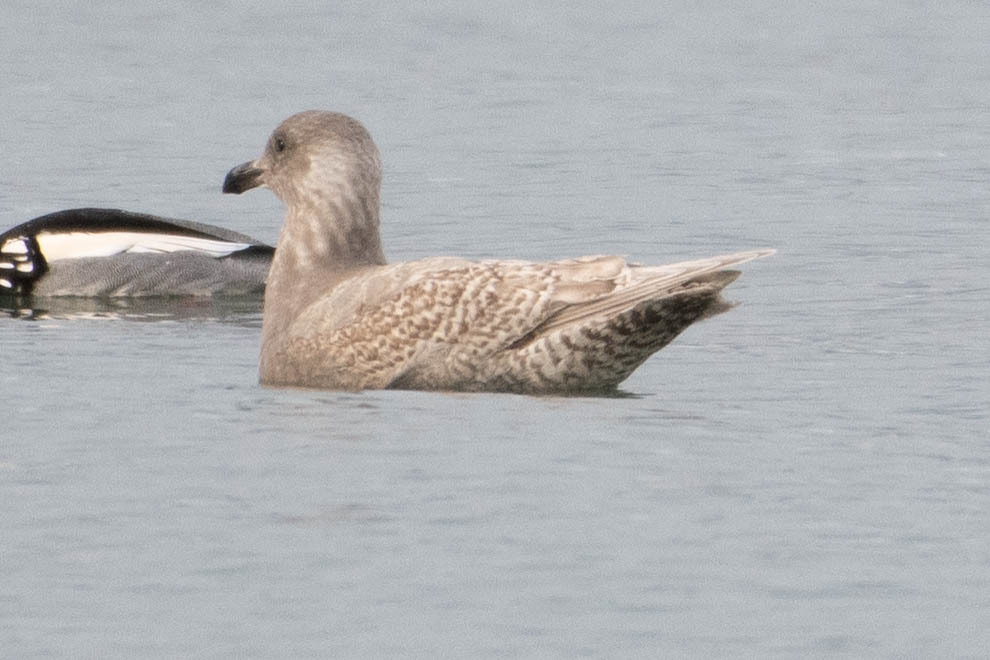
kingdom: Animalia
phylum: Chordata
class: Aves
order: Charadriiformes
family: Laridae
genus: Larus
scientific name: Larus glaucescens
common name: Glaucous-winged gull
